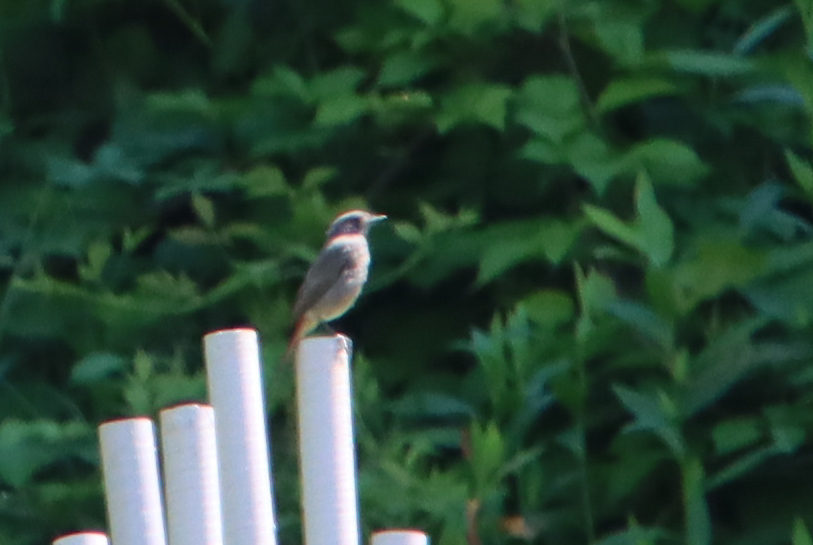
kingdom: Animalia
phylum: Chordata
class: Aves
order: Passeriformes
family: Muscicapidae
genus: Phoenicurus
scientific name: Phoenicurus ochruros
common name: Black redstart
